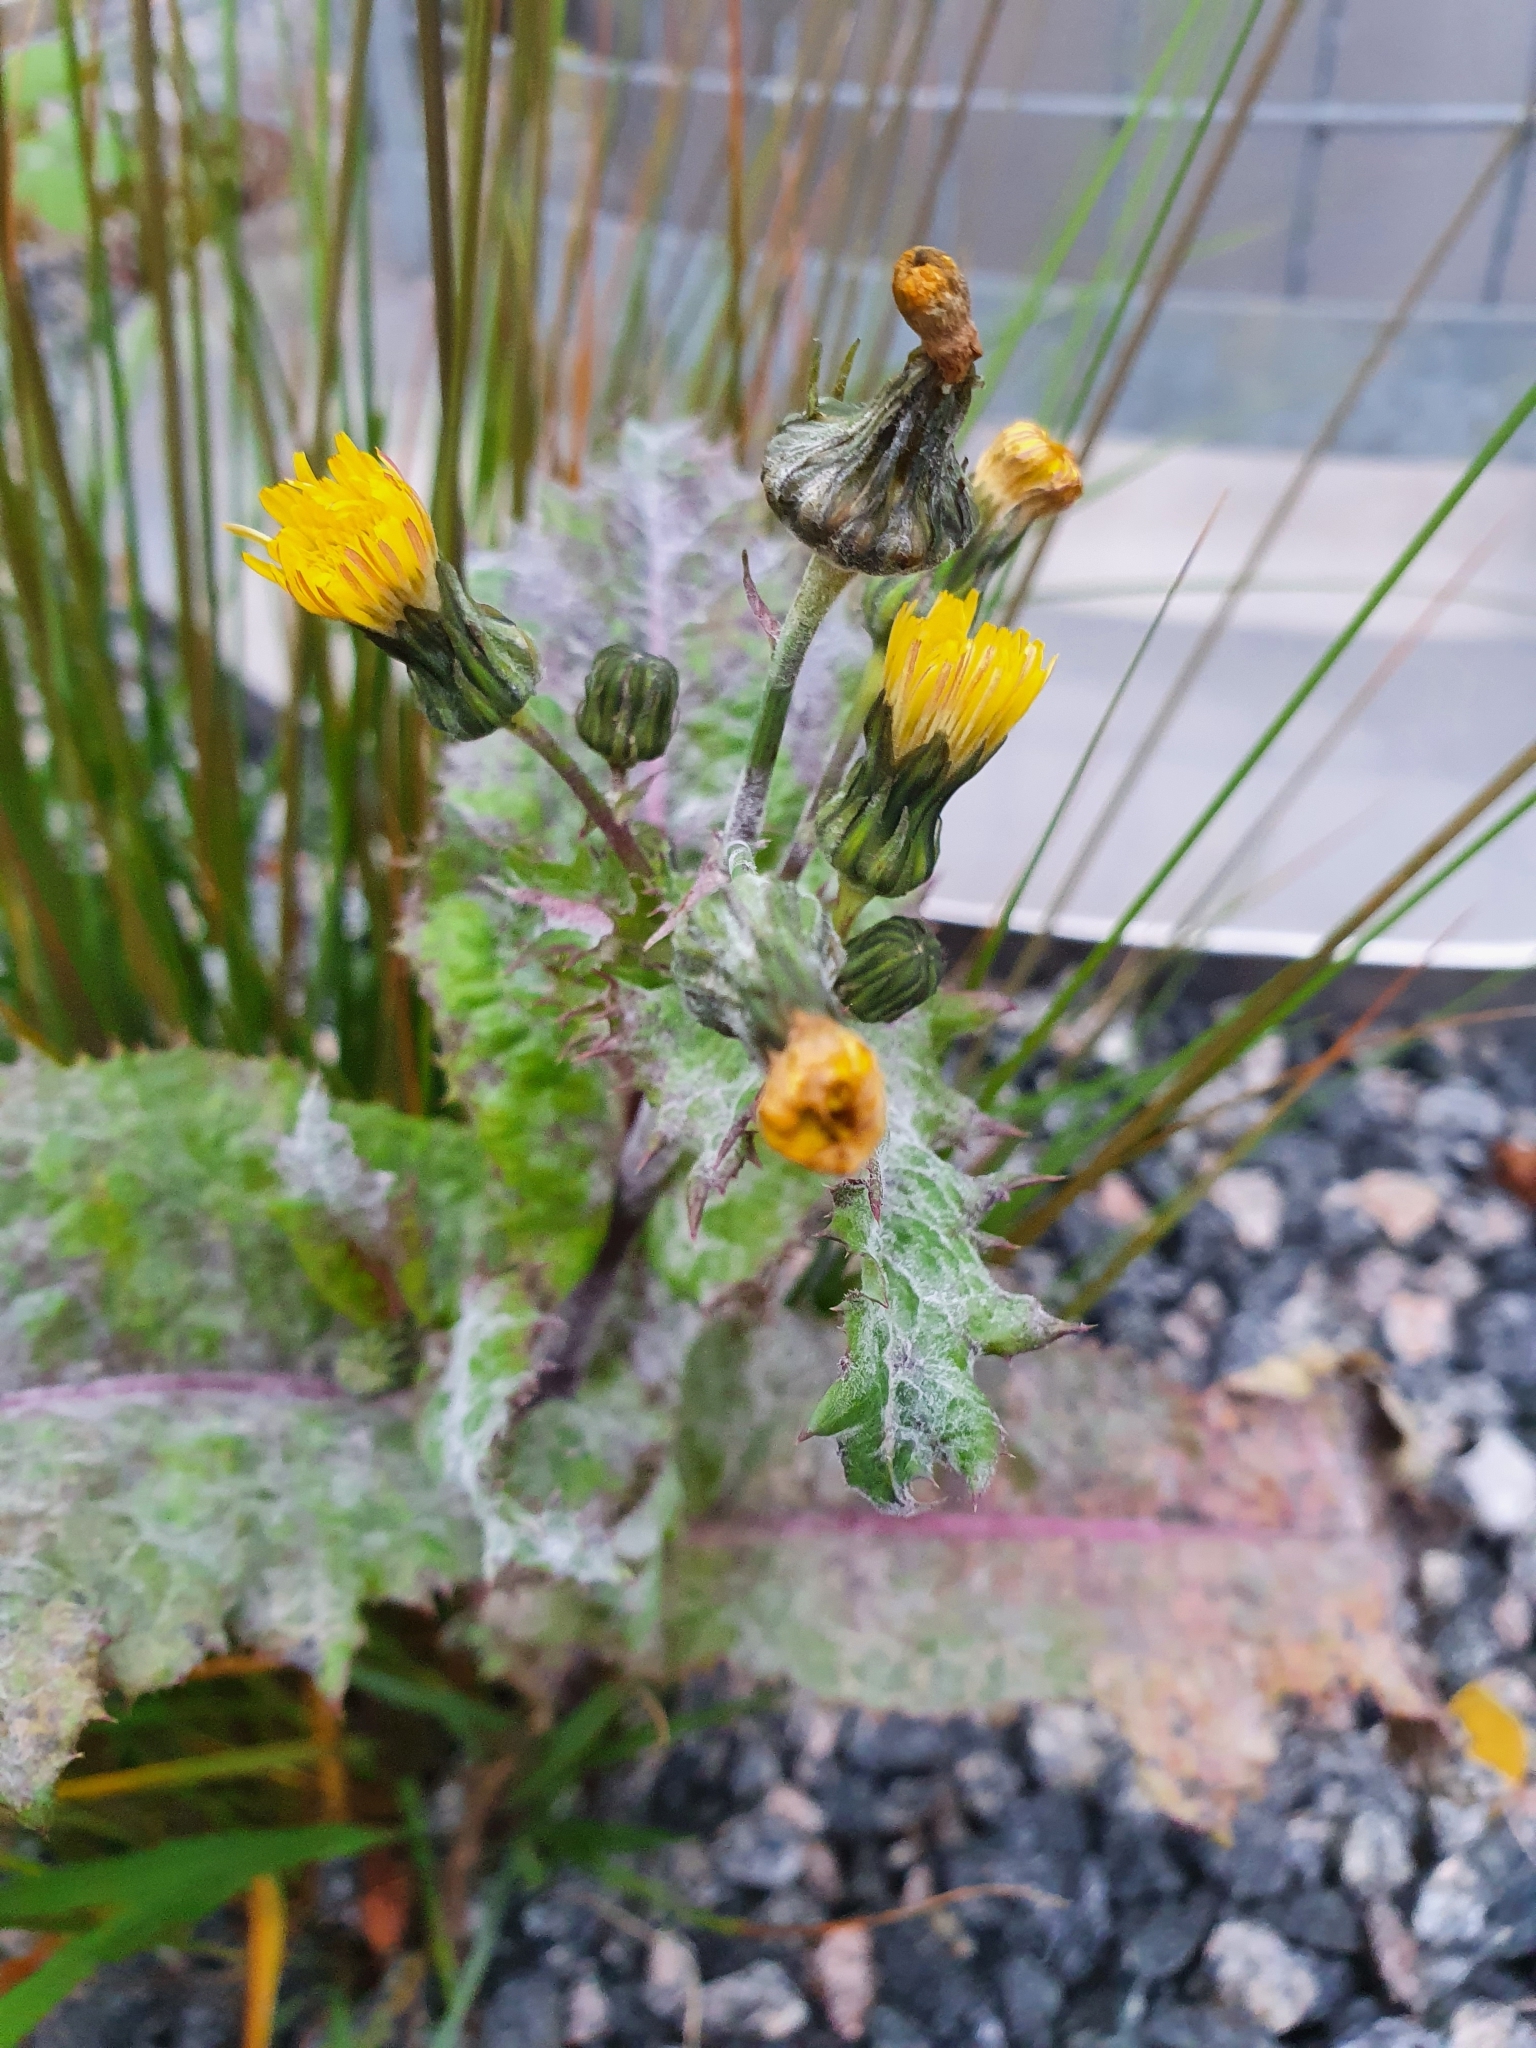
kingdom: Plantae
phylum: Tracheophyta
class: Magnoliopsida
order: Asterales
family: Asteraceae
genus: Sonchus
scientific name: Sonchus asper
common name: Prickly sow-thistle
